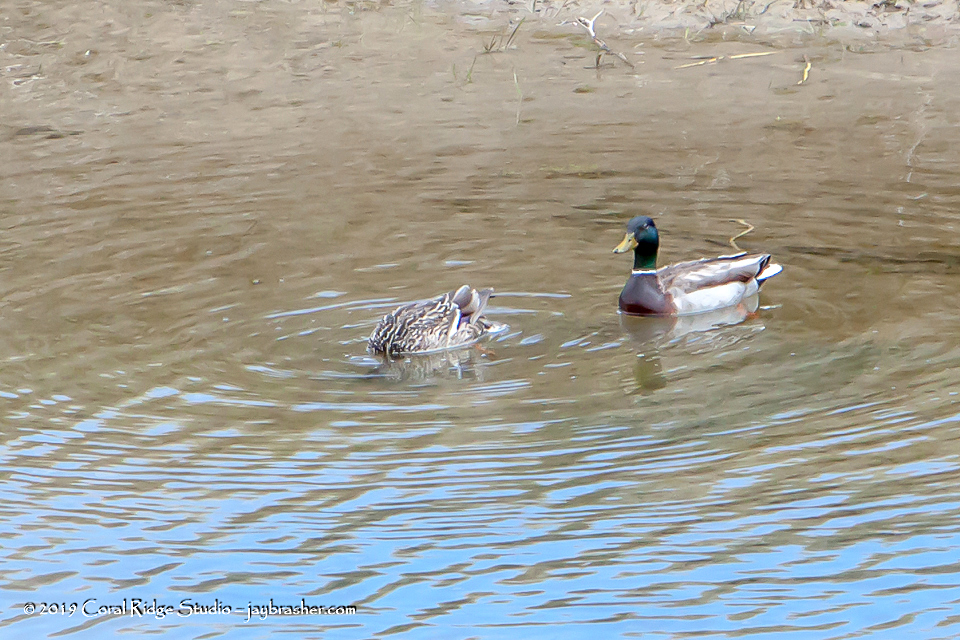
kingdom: Animalia
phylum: Chordata
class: Aves
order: Anseriformes
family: Anatidae
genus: Anas
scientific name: Anas platyrhynchos
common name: Mallard
